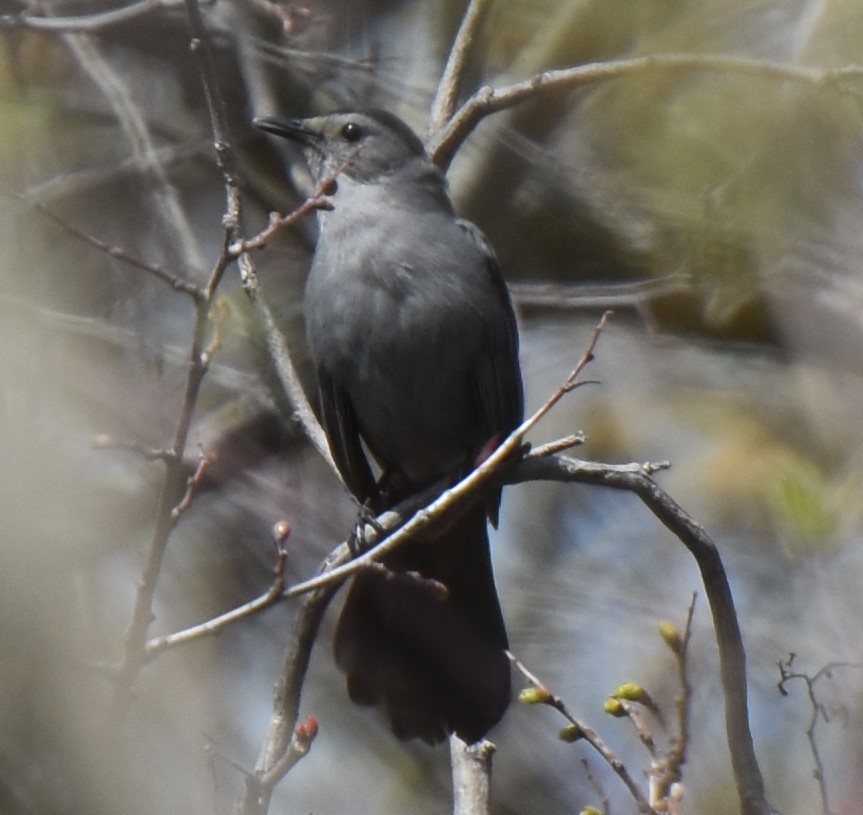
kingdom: Animalia
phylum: Chordata
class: Aves
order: Passeriformes
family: Mimidae
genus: Dumetella
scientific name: Dumetella carolinensis
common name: Gray catbird
